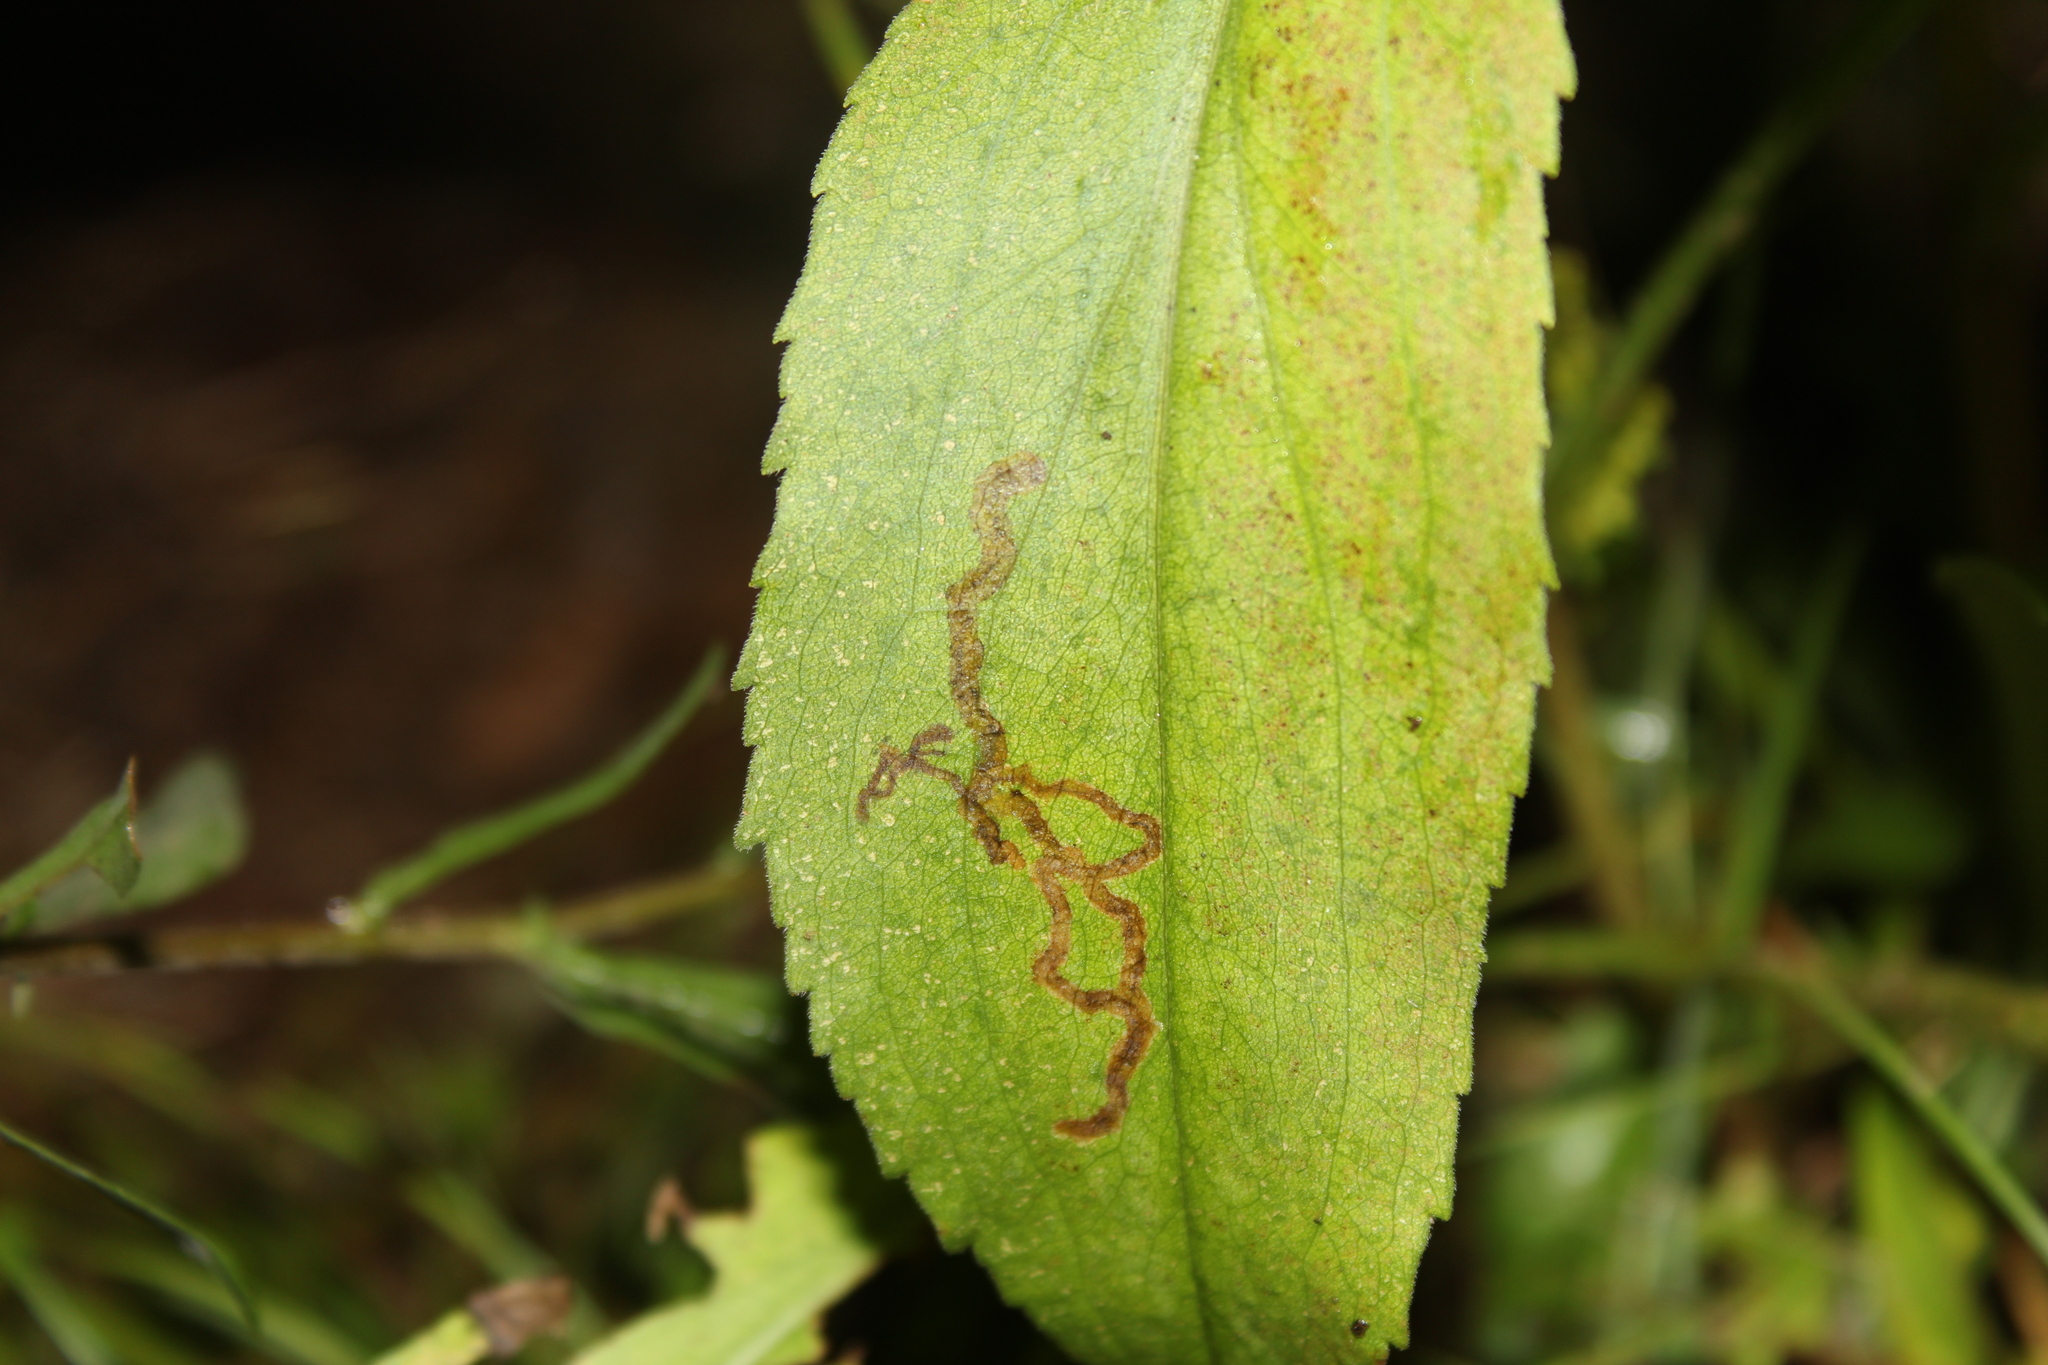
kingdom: Animalia
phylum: Arthropoda
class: Insecta
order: Diptera
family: Agromyzidae
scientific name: Agromyzidae
